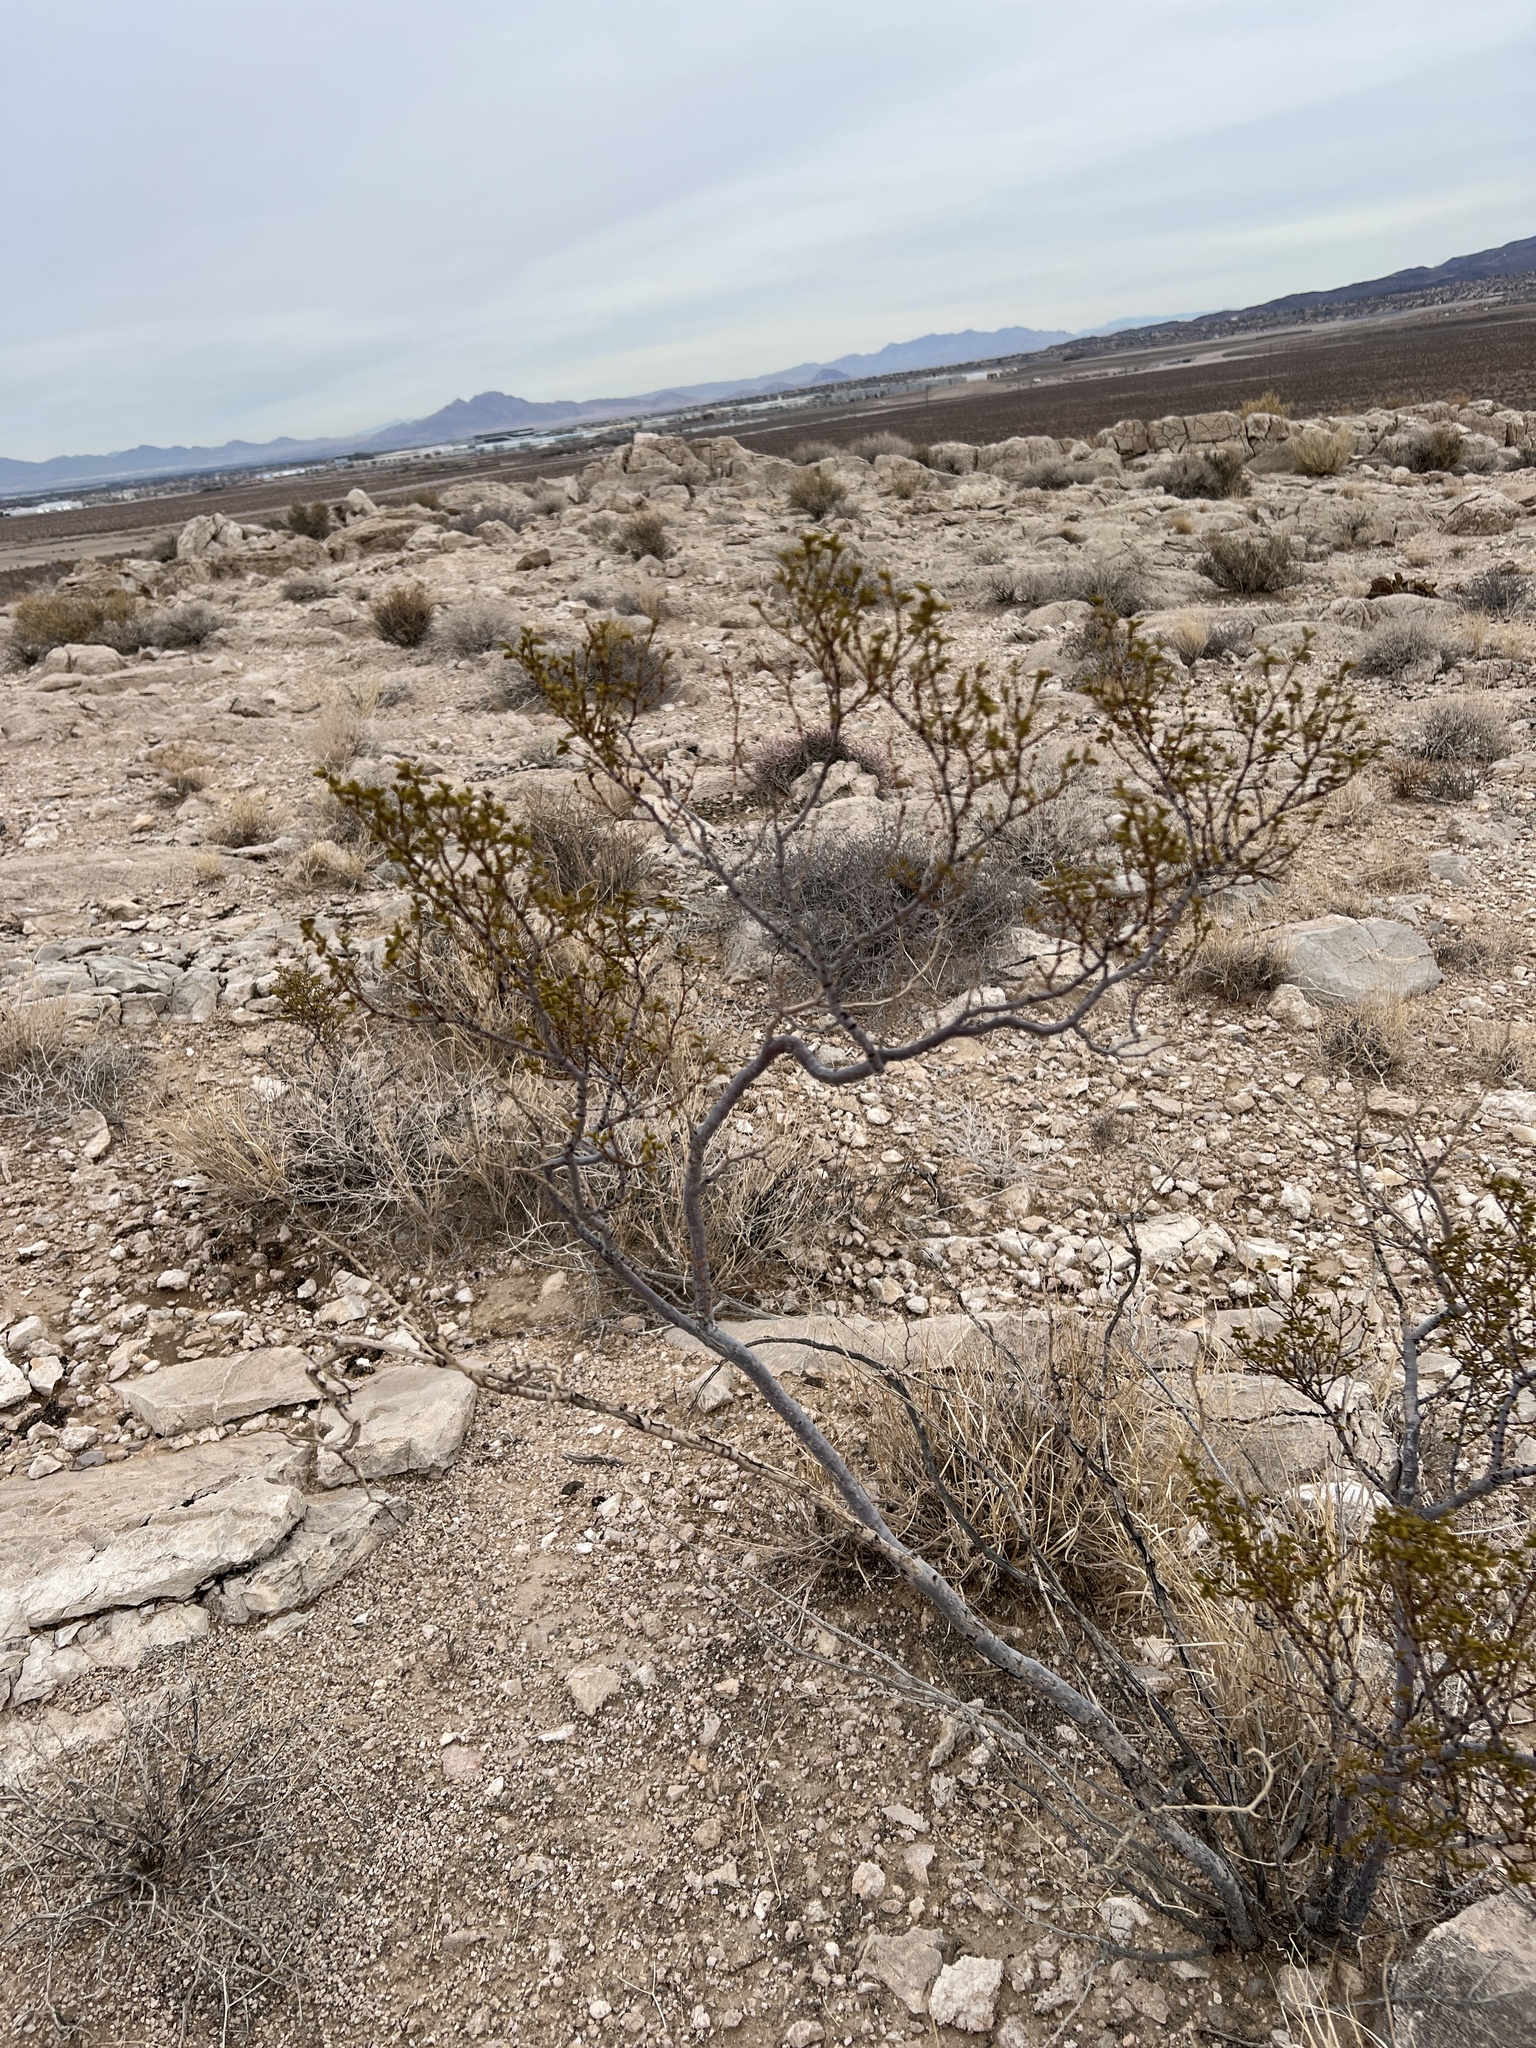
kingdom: Plantae
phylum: Tracheophyta
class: Magnoliopsida
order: Zygophyllales
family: Zygophyllaceae
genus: Larrea
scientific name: Larrea tridentata
